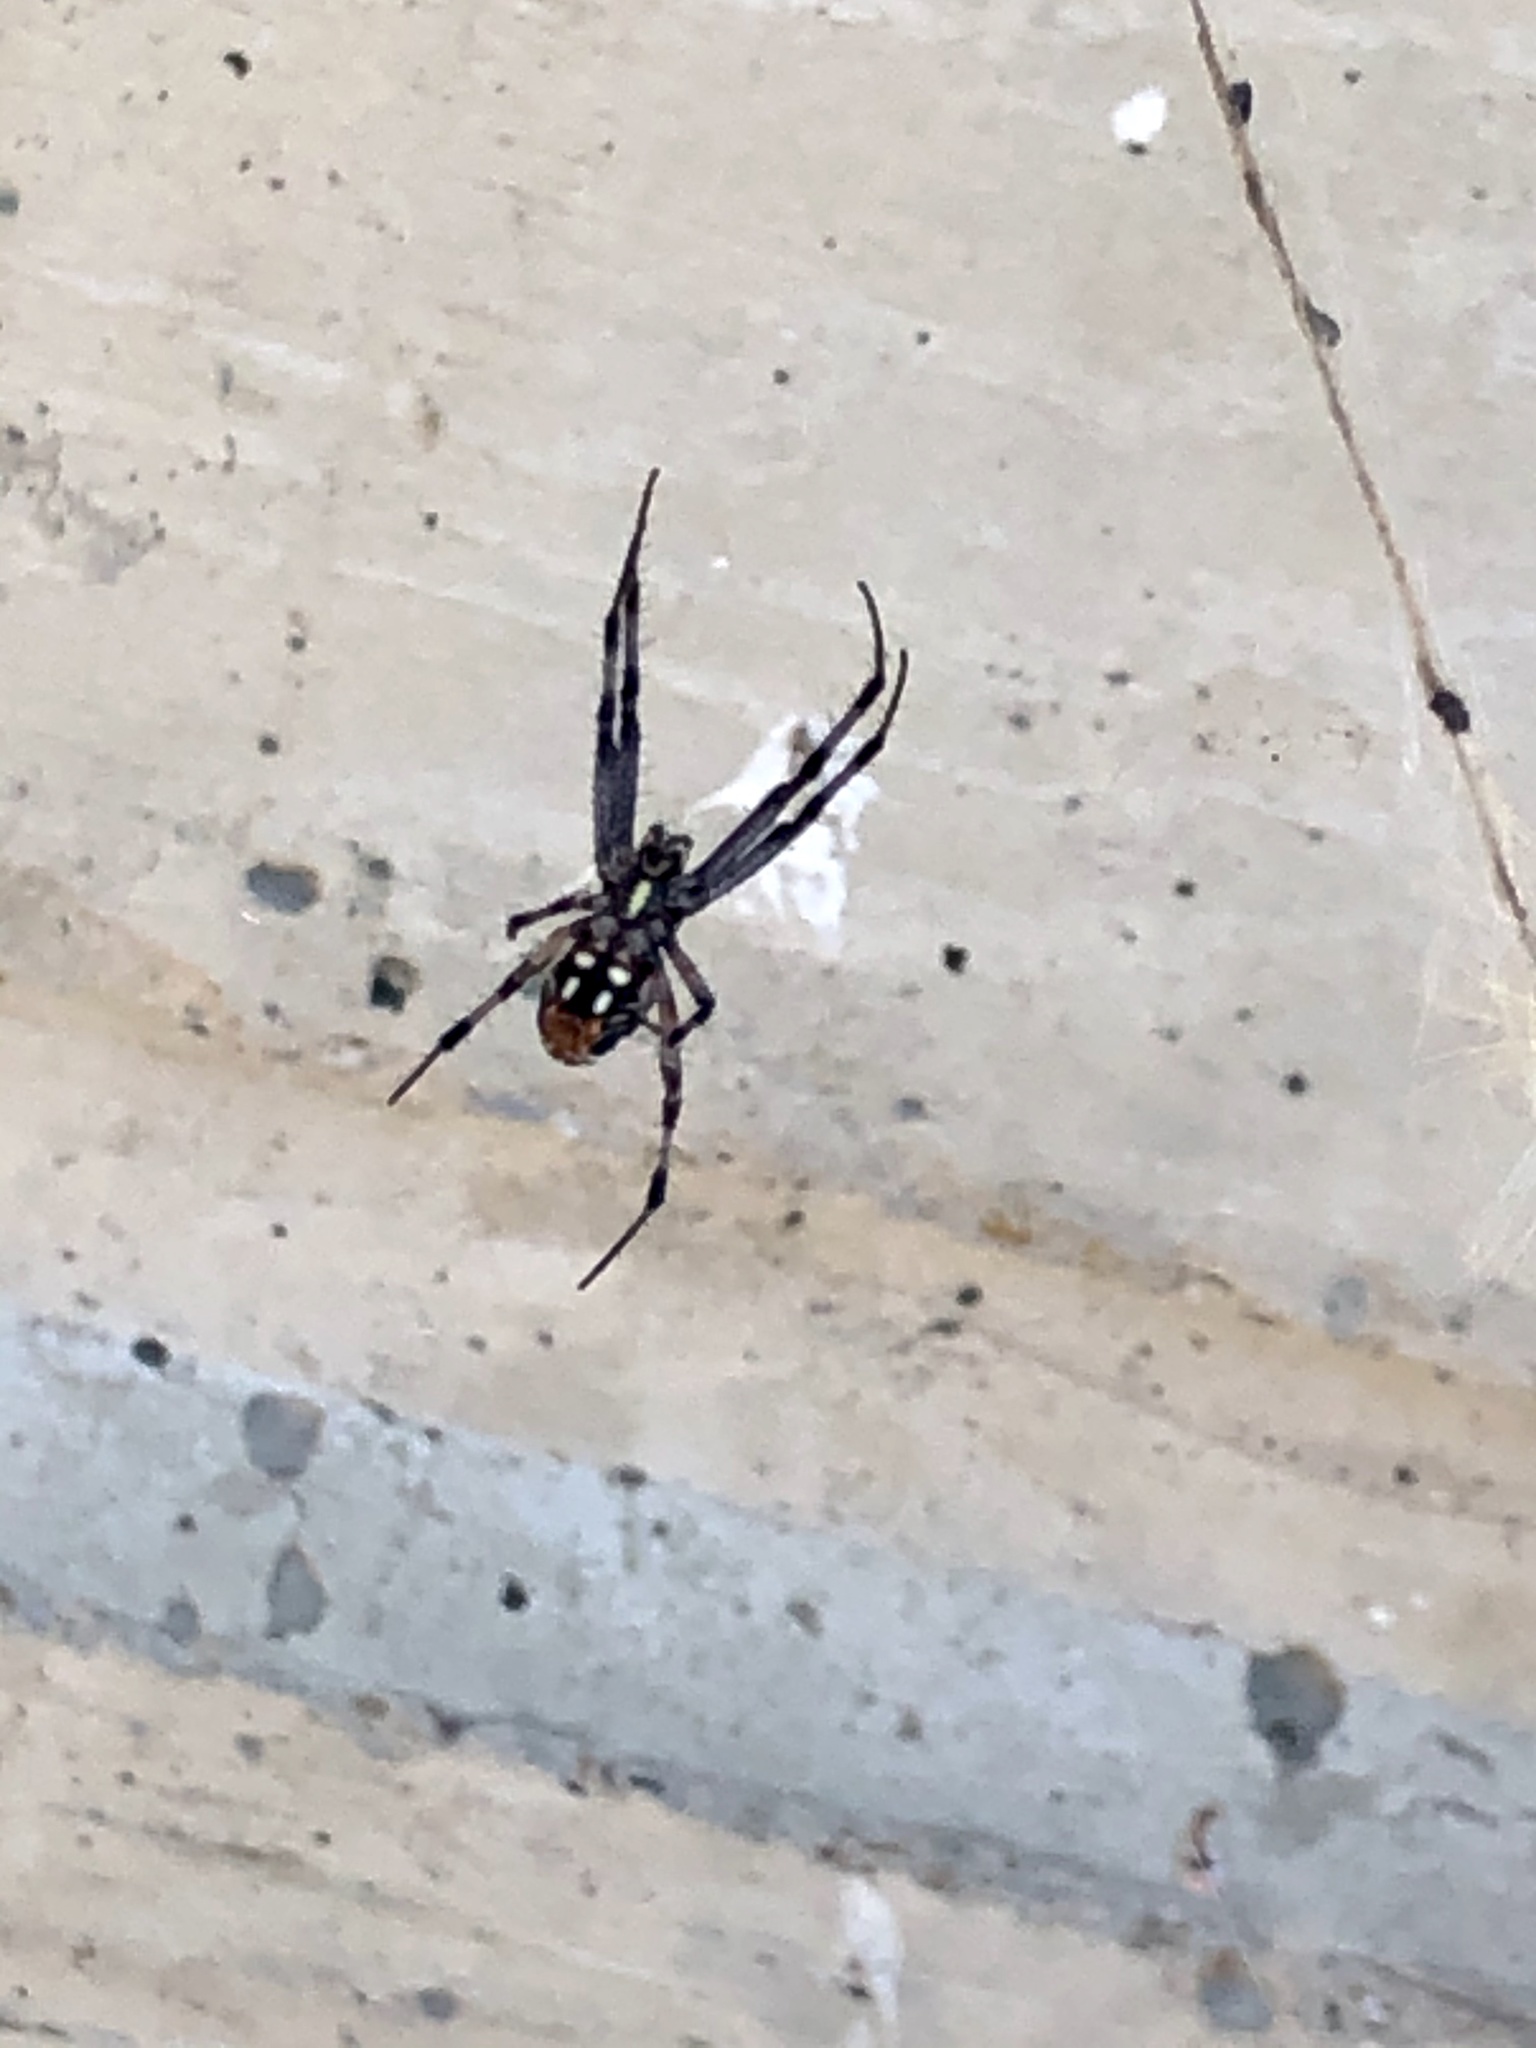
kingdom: Animalia
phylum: Arthropoda
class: Arachnida
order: Araneae
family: Araneidae
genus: Neoscona
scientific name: Neoscona oaxacensis
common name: Orb weavers
